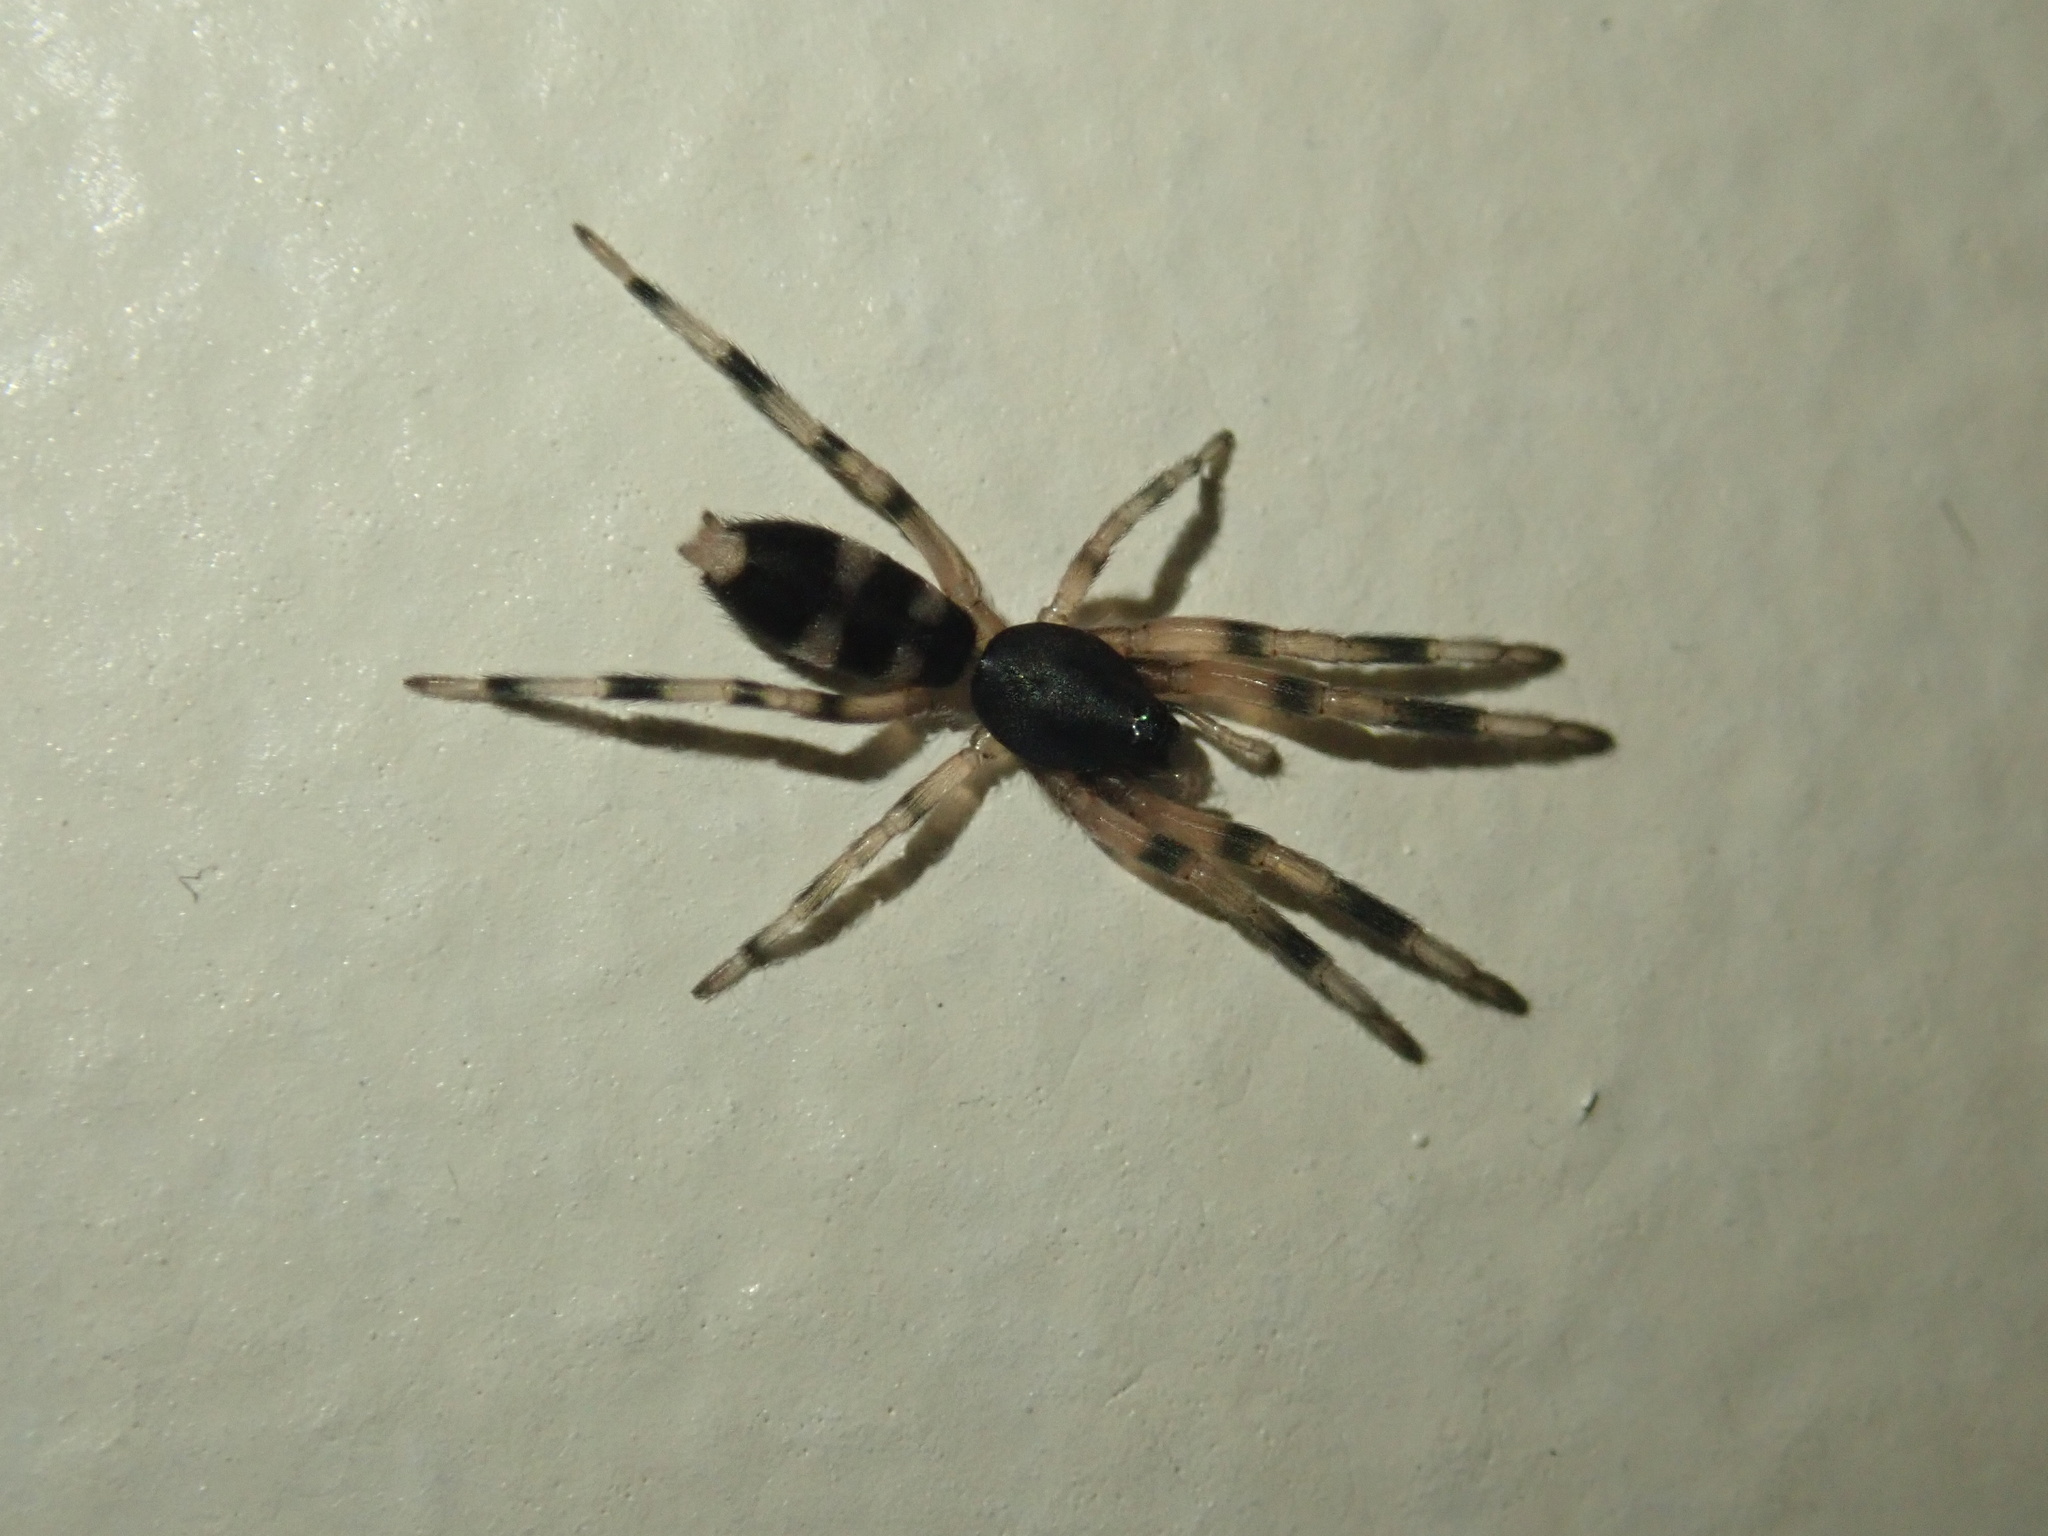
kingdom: Animalia
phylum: Arthropoda
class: Arachnida
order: Araneae
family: Lamponidae
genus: Lampona
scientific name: Lampona murina
